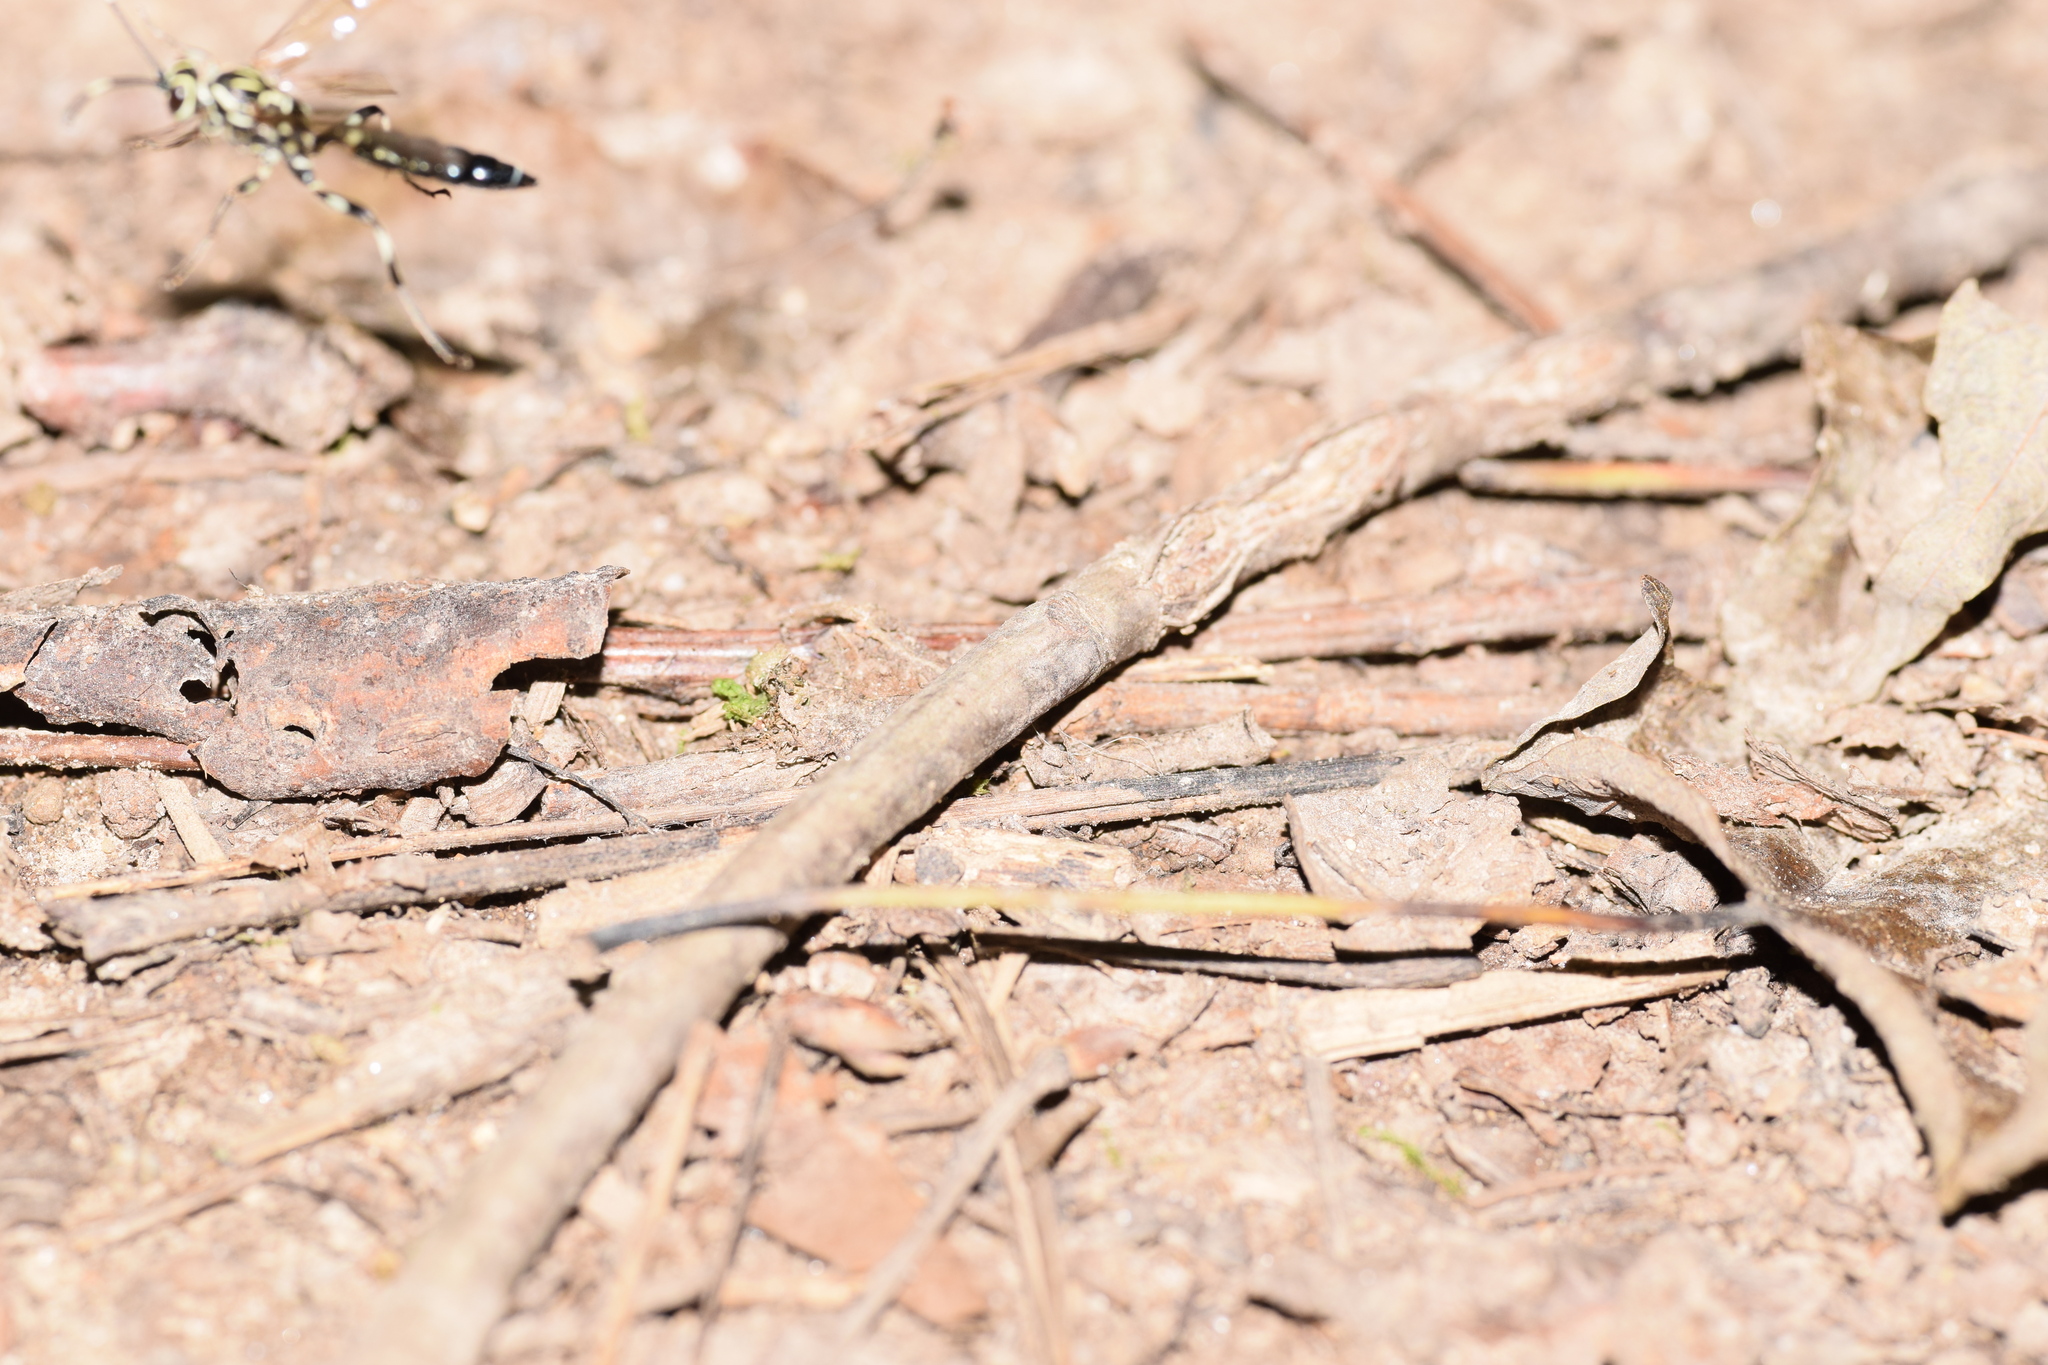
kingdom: Animalia
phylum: Arthropoda
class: Insecta
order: Hymenoptera
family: Ichneumonidae
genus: Coelichneumon
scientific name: Coelichneumon pulcher
